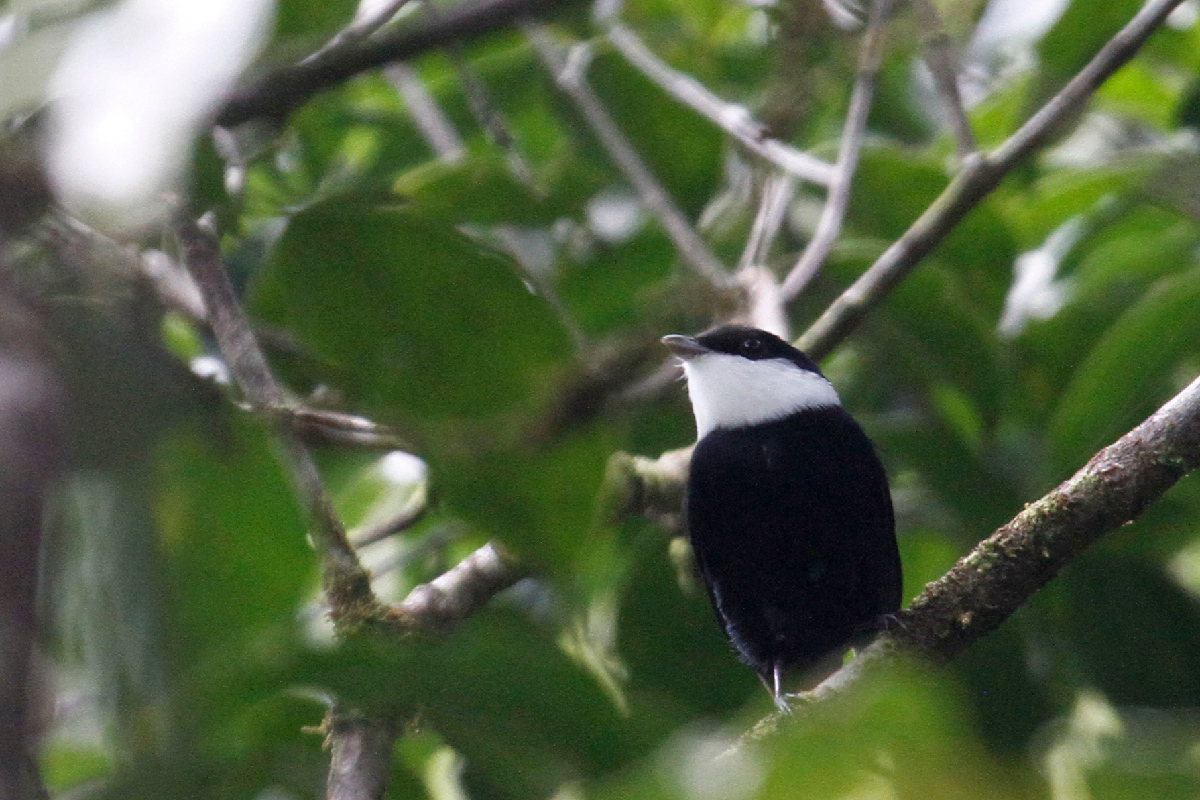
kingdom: Animalia
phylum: Chordata
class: Aves
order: Passeriformes
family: Pipridae
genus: Corapipo
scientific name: Corapipo altera
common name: White-ruffed manakin
